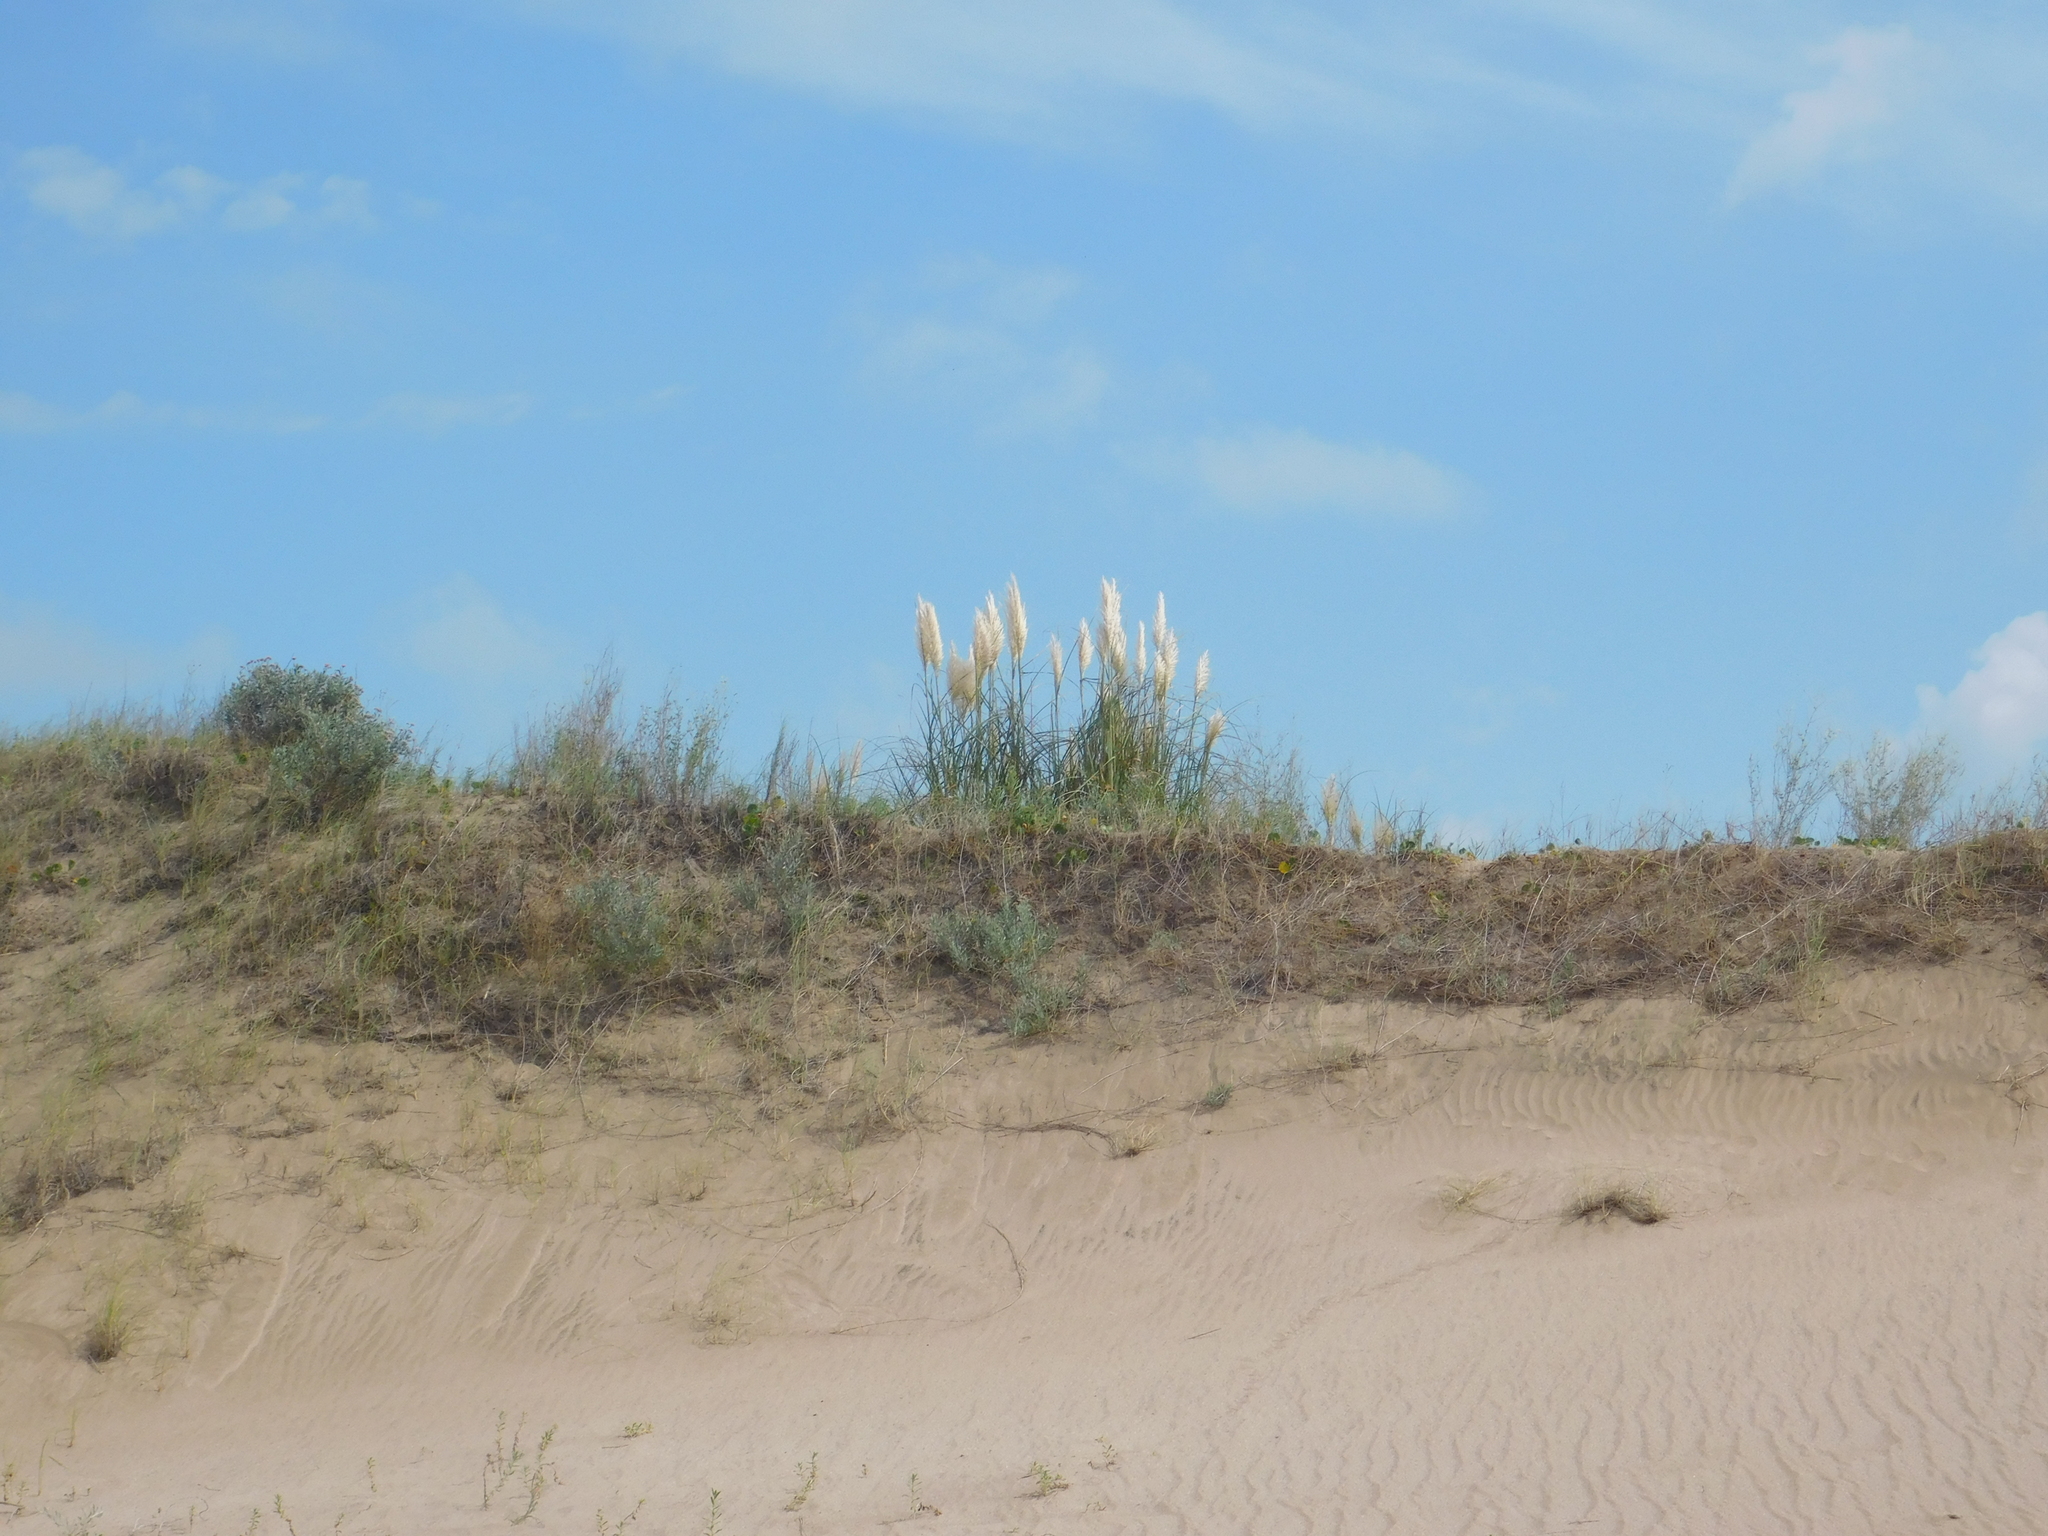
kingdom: Plantae
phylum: Tracheophyta
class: Liliopsida
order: Poales
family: Poaceae
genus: Cortaderia
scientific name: Cortaderia selloana
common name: Uruguayan pampas grass
